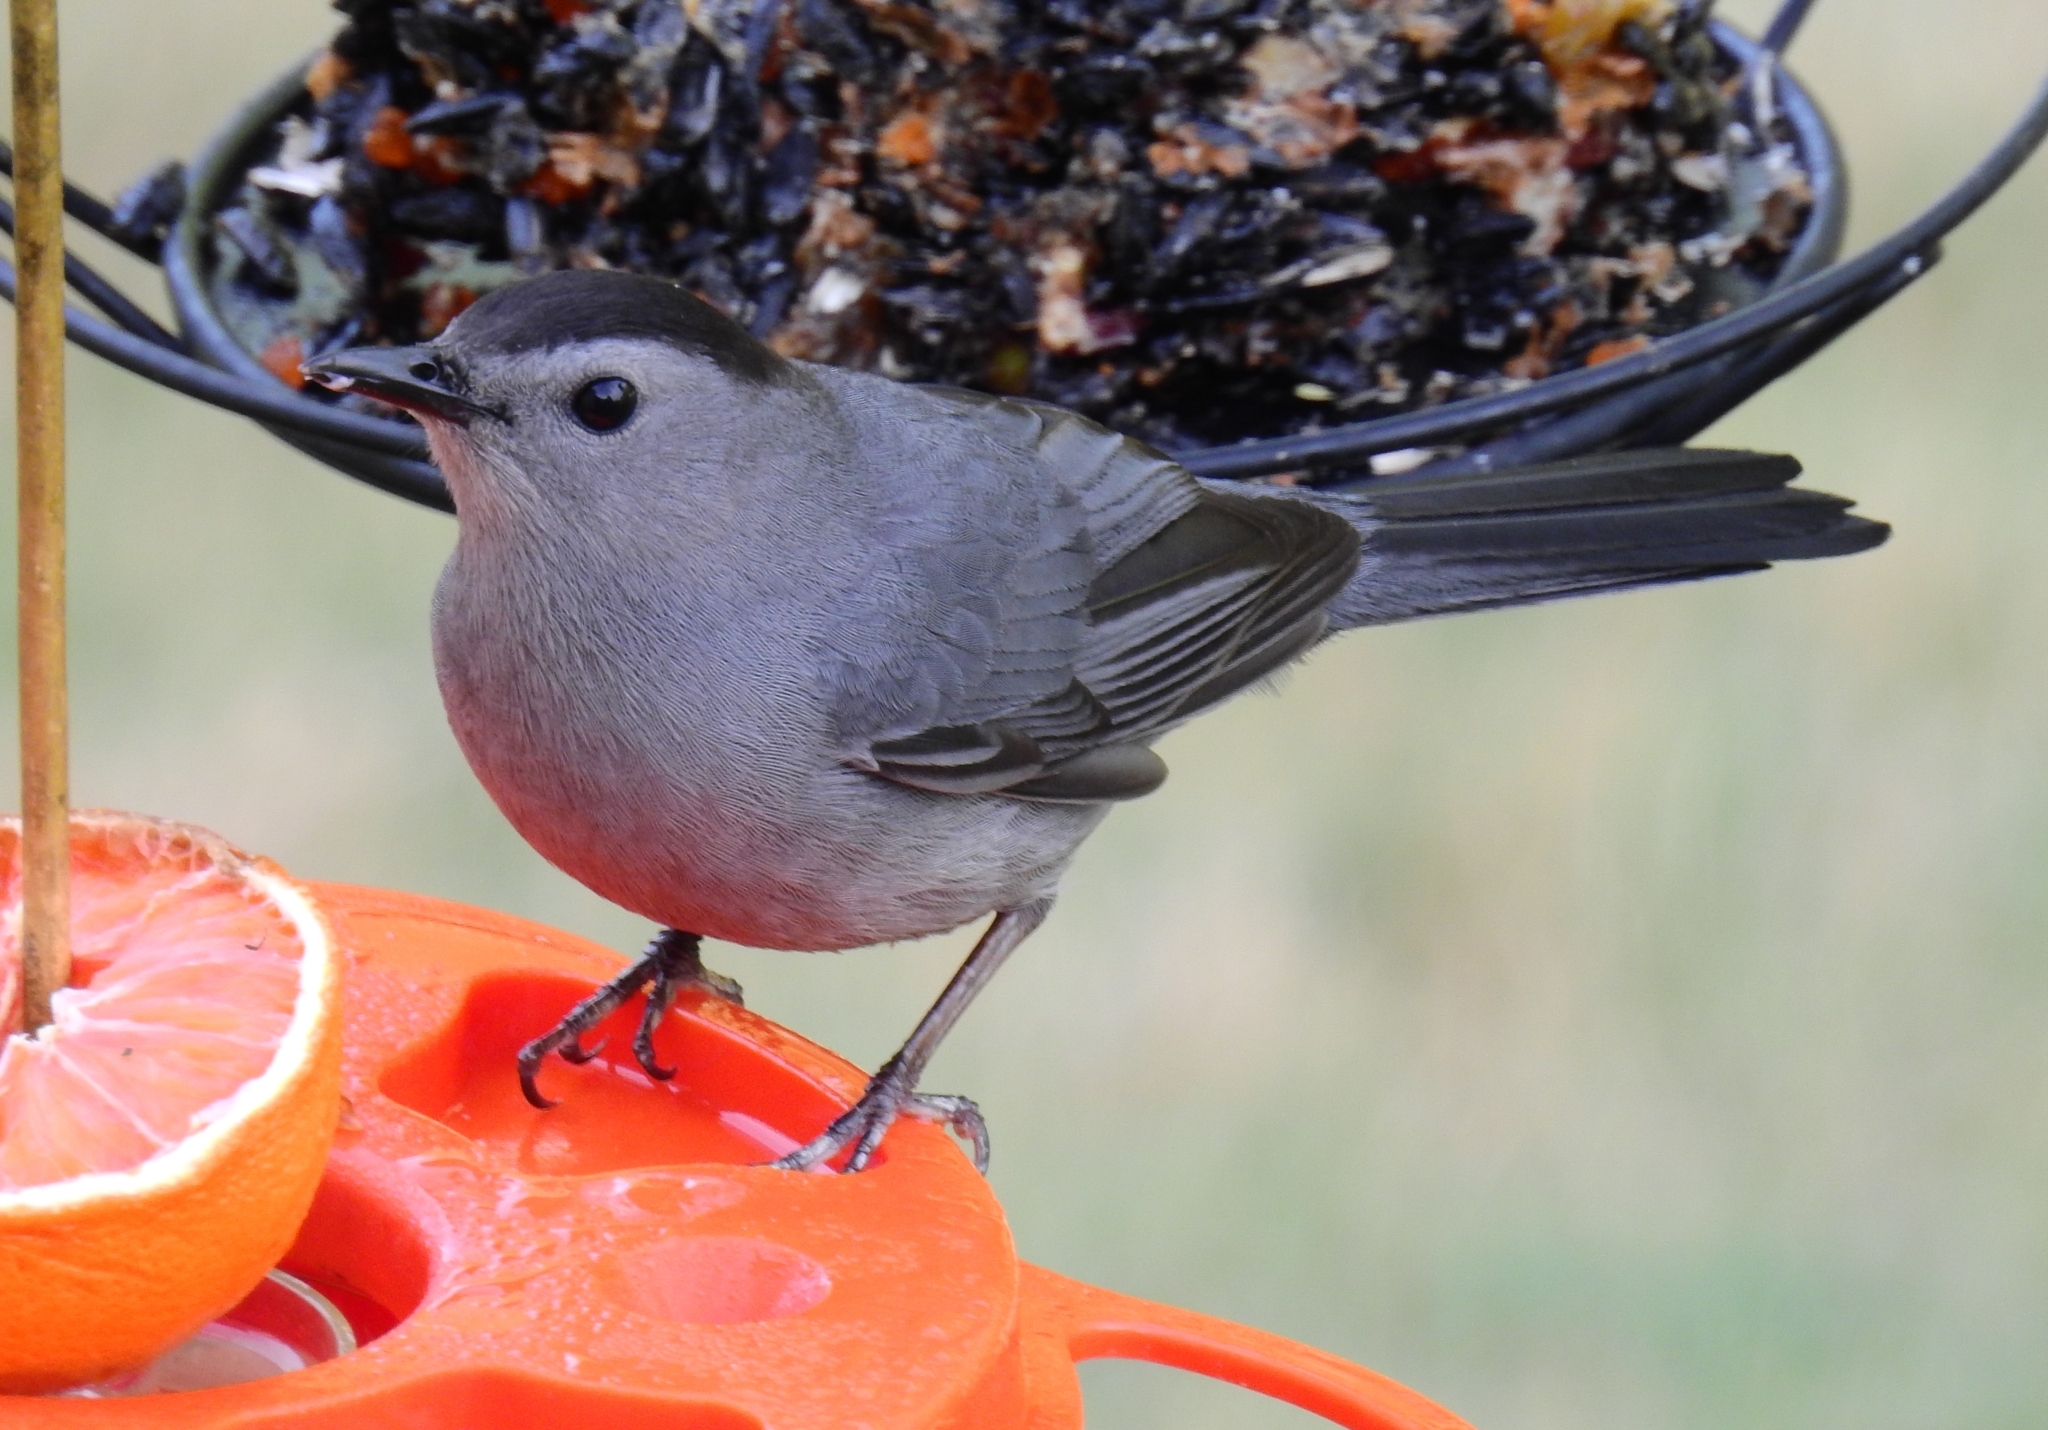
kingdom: Animalia
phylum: Chordata
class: Aves
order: Passeriformes
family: Mimidae
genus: Dumetella
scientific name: Dumetella carolinensis
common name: Gray catbird
